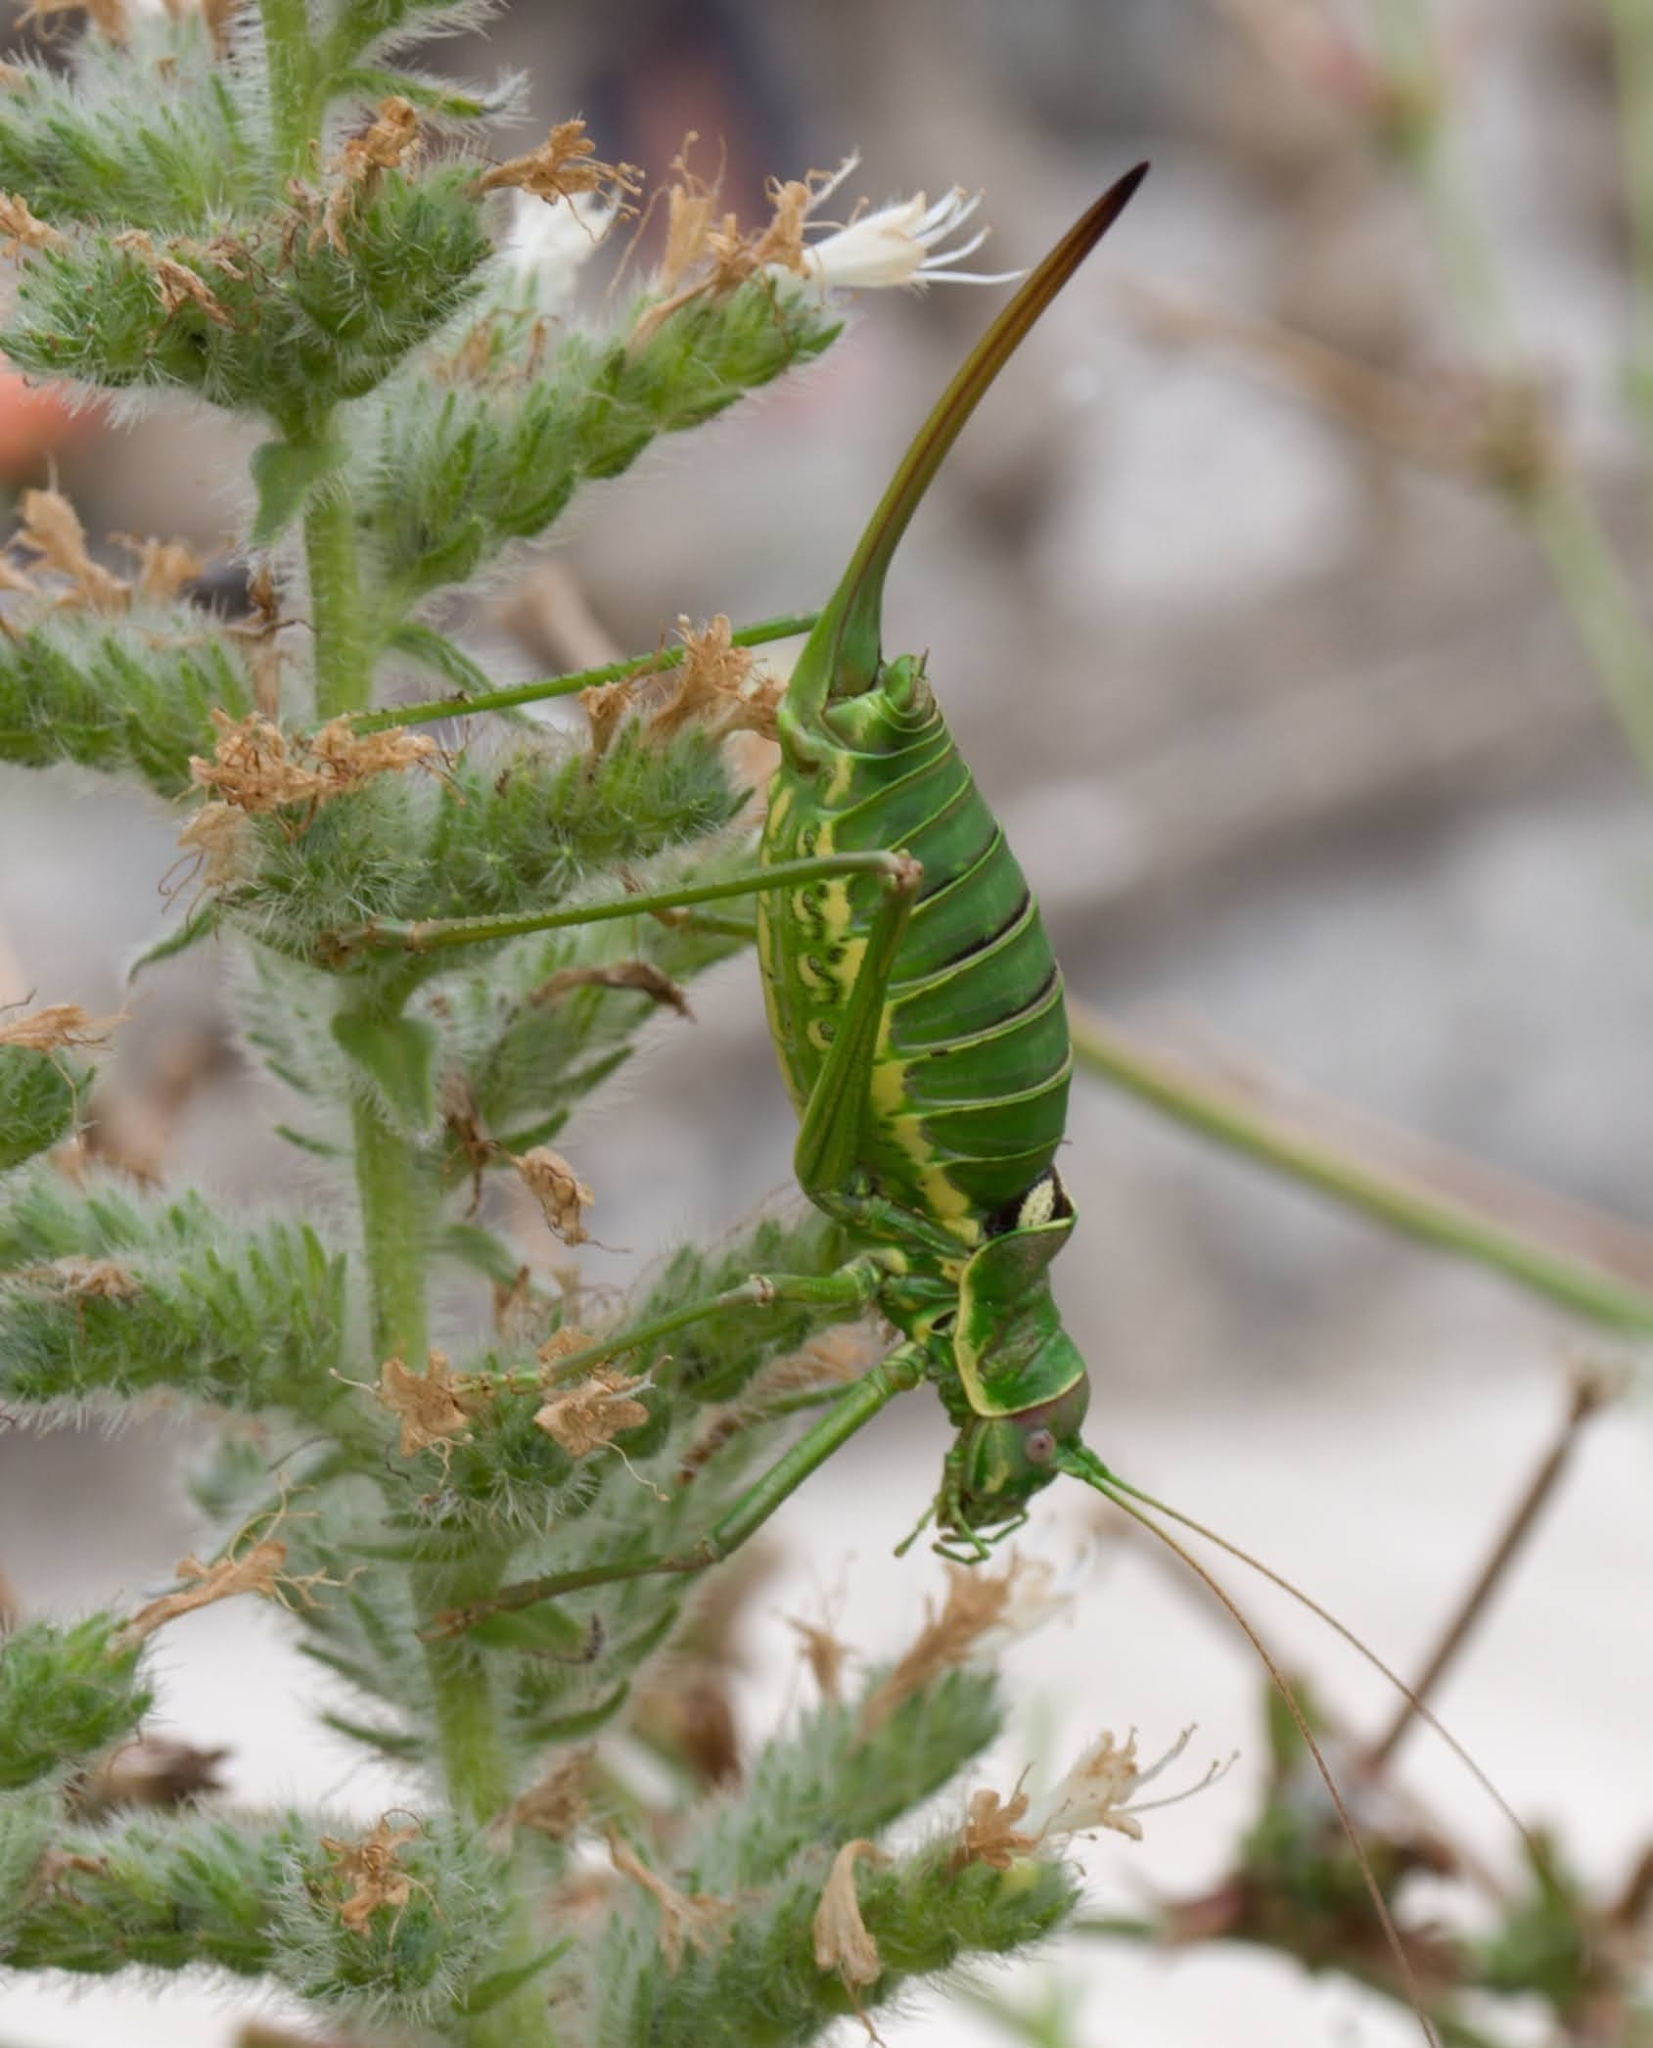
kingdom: Animalia
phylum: Arthropoda
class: Insecta
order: Orthoptera
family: Tettigoniidae
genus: Dinarippiger
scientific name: Dinarippiger discoidalis
